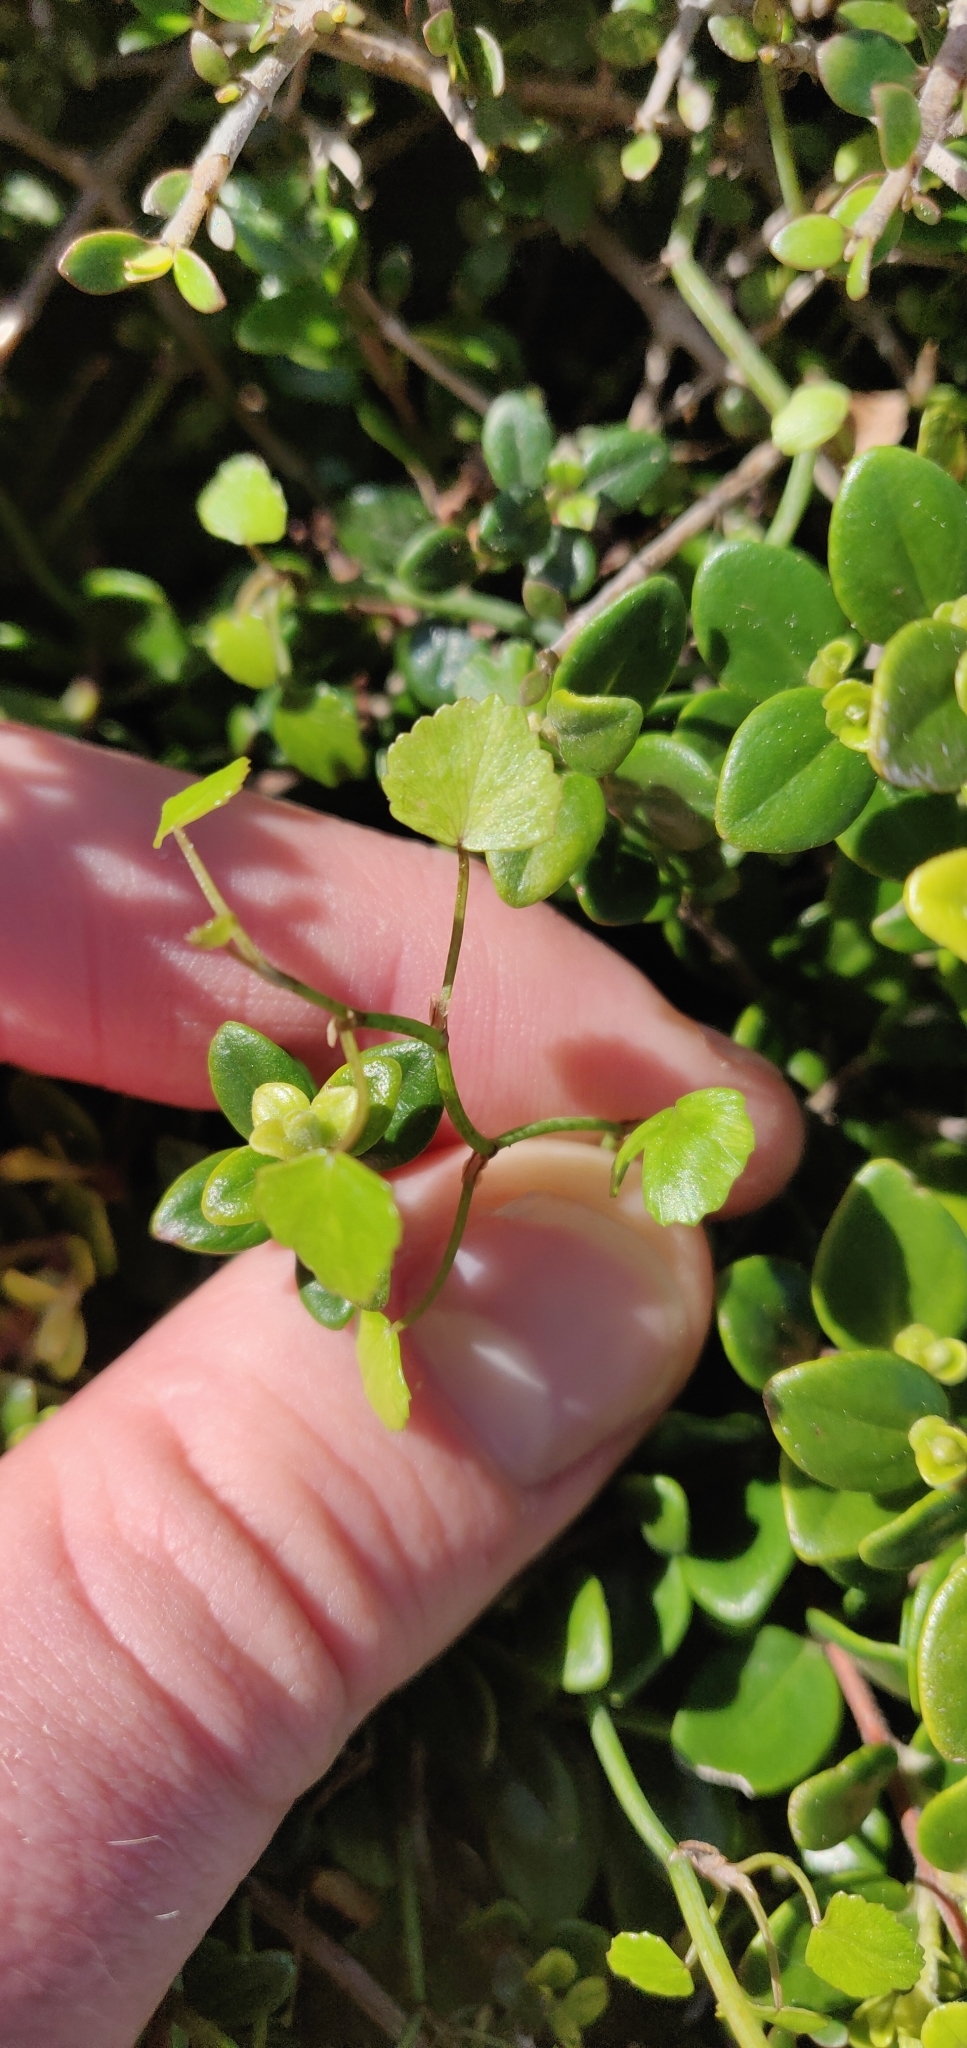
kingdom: Plantae
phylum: Tracheophyta
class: Magnoliopsida
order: Apiales
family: Apiaceae
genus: Scandia
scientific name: Scandia geniculata
